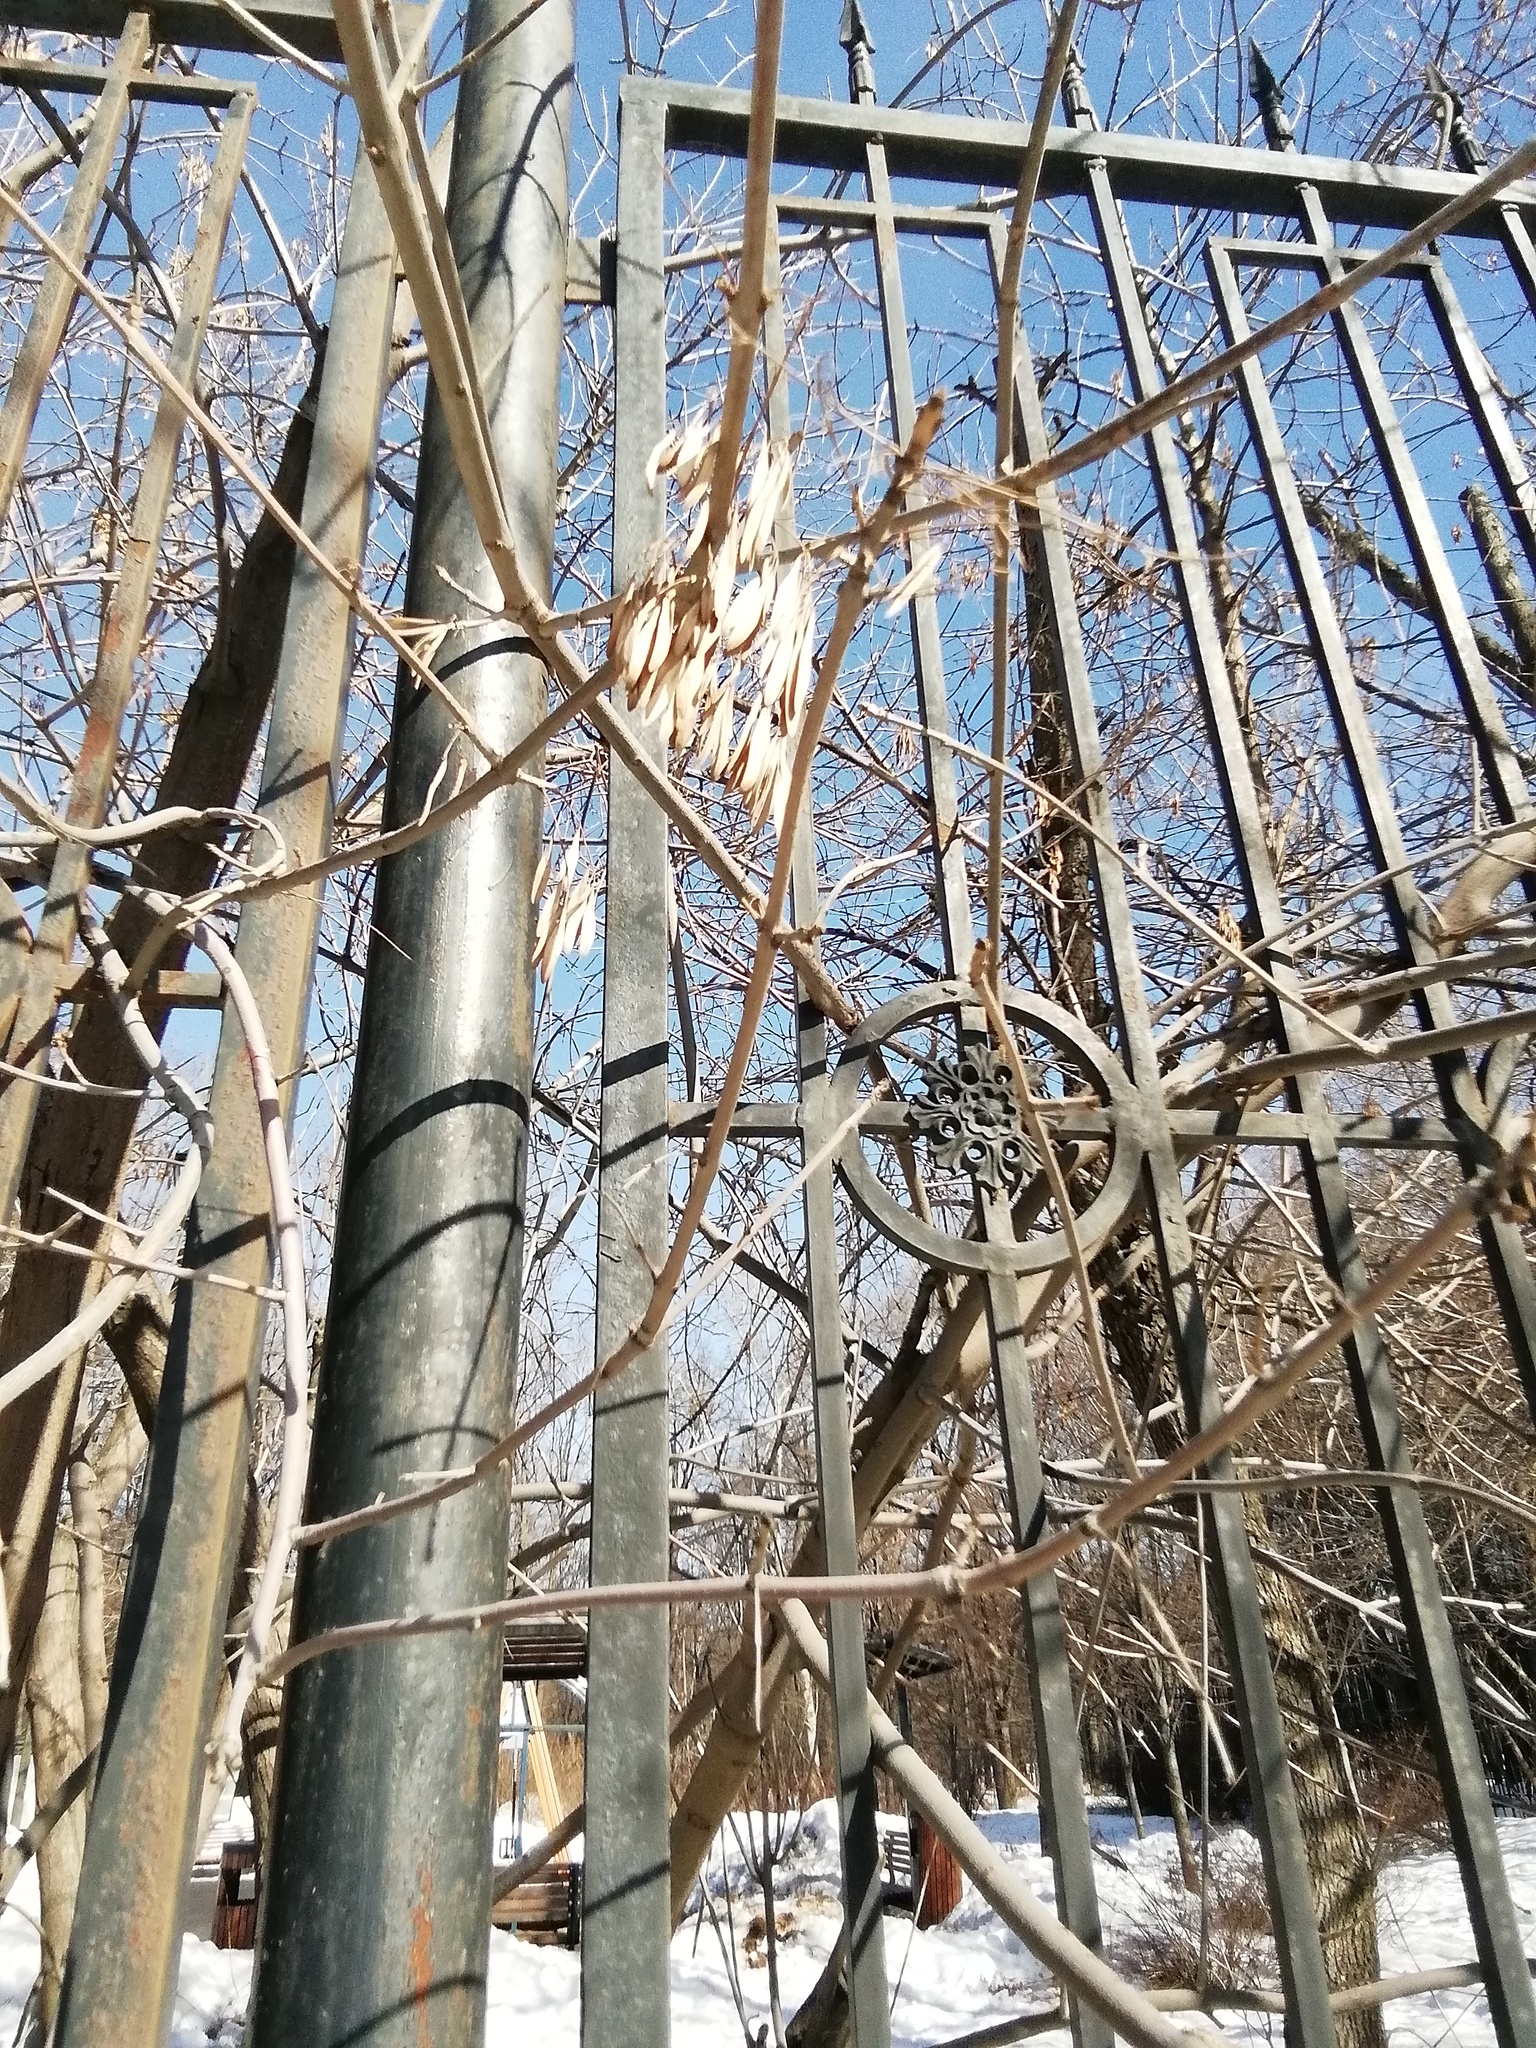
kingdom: Plantae
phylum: Tracheophyta
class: Magnoliopsida
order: Lamiales
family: Oleaceae
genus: Fraxinus
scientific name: Fraxinus pennsylvanica
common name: Green ash
